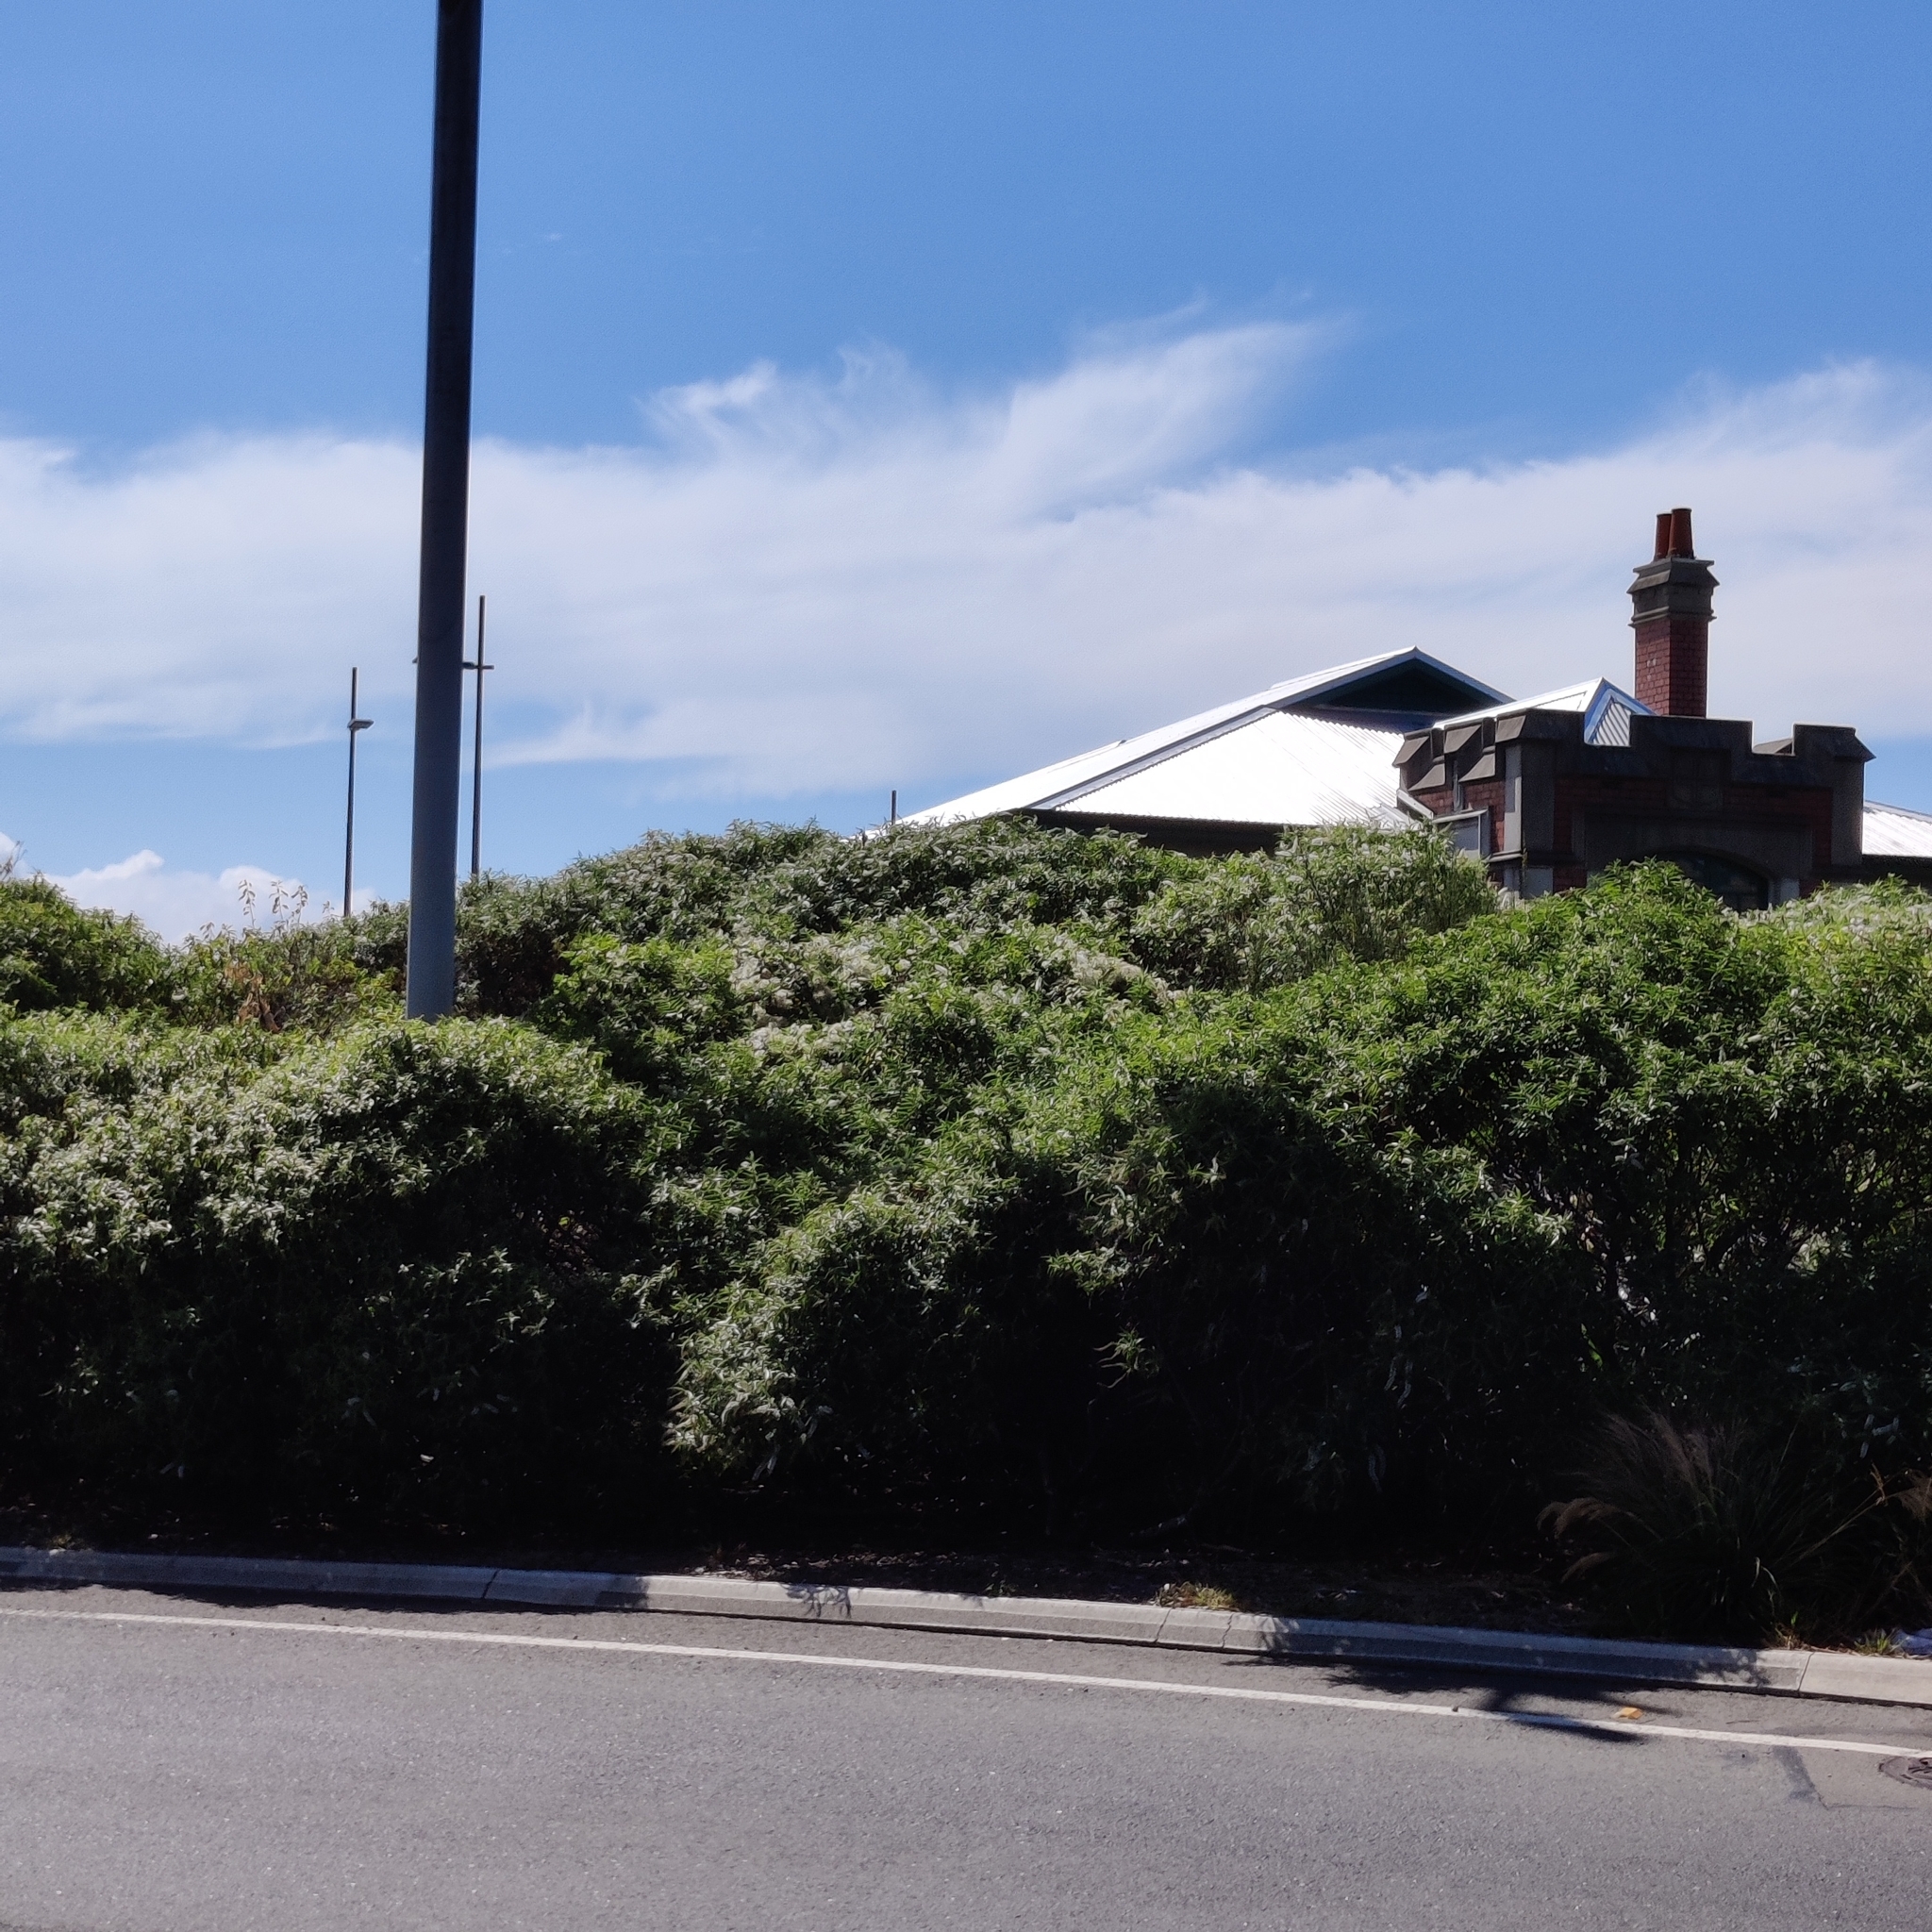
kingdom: Plantae
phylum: Tracheophyta
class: Magnoliopsida
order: Ranunculales
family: Ranunculaceae
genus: Clematis
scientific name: Clematis vitalba
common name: Evergreen clematis
